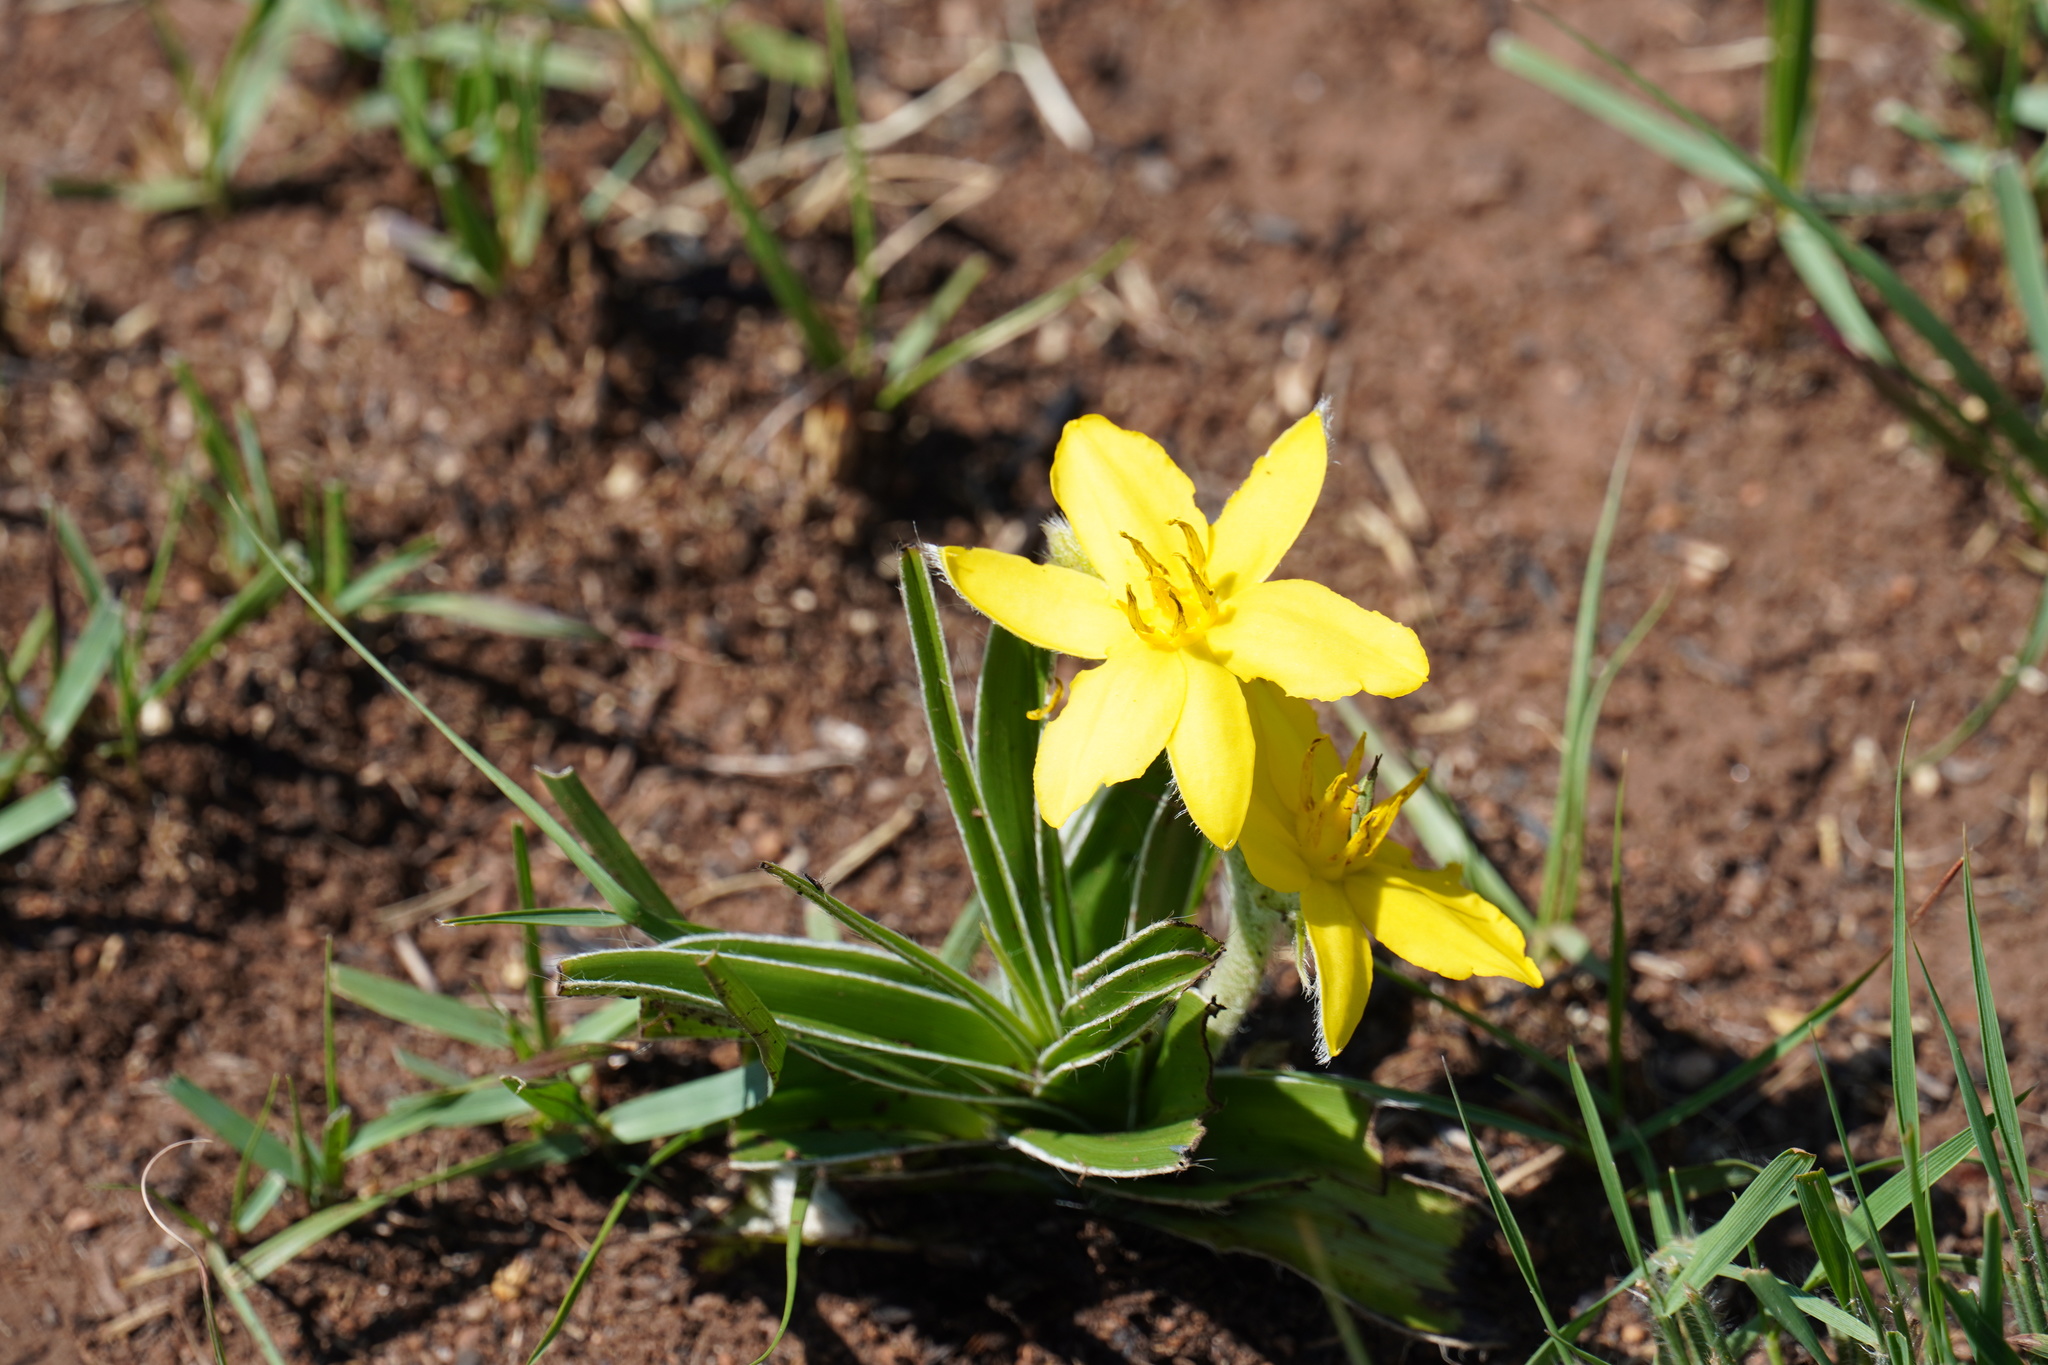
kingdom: Plantae
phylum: Tracheophyta
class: Liliopsida
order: Asparagales
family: Hypoxidaceae
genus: Hypoxis
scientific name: Hypoxis obtusa
